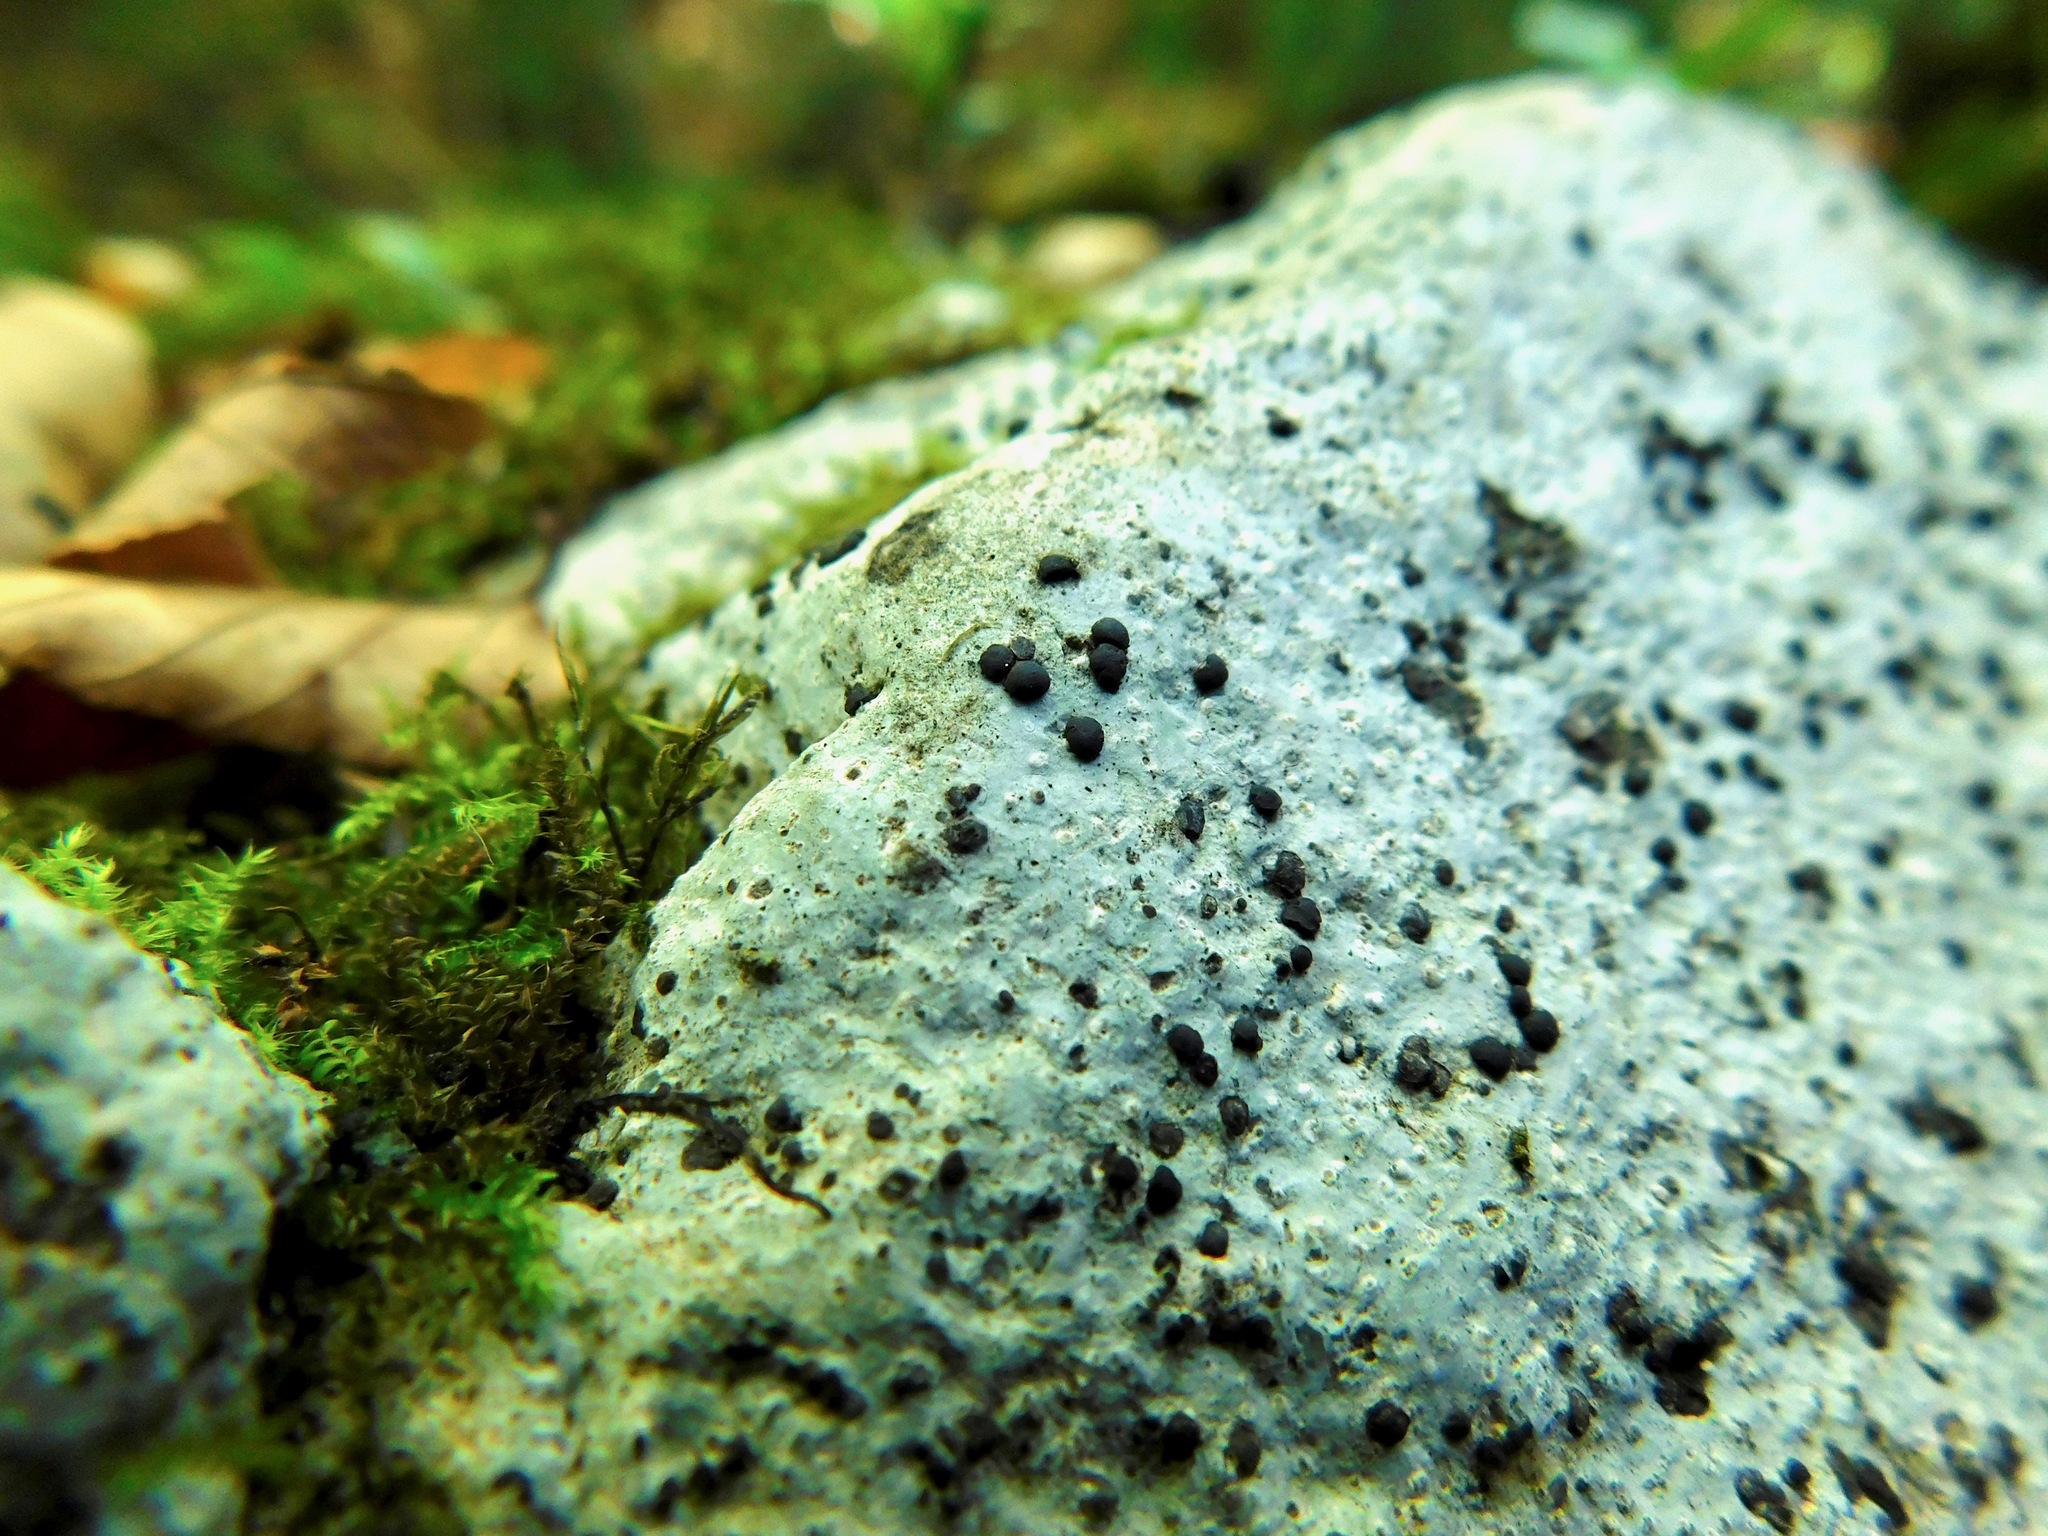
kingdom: Fungi
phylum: Ascomycota
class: Lecanoromycetes
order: Lecideales
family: Lecideaceae
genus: Porpidia
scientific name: Porpidia crustulata
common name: Concentric boulder lichen
